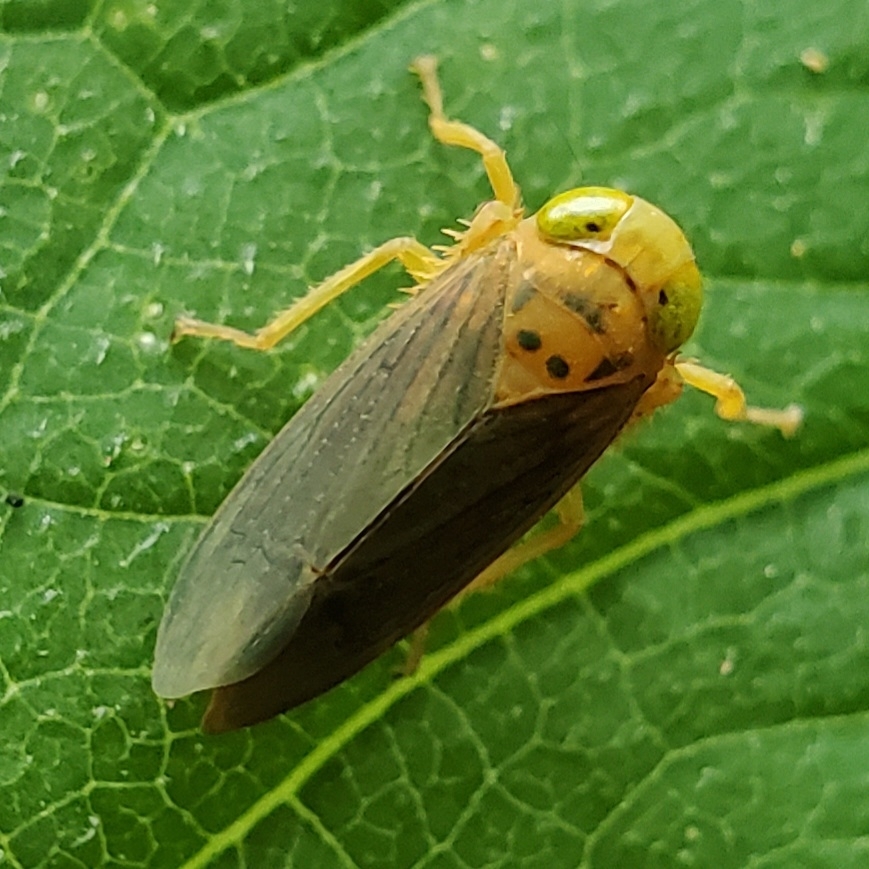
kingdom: Animalia
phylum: Arthropoda
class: Insecta
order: Hemiptera
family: Cicadellidae
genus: Jikradia
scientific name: Jikradia olitoria
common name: Coppery leafhopper
